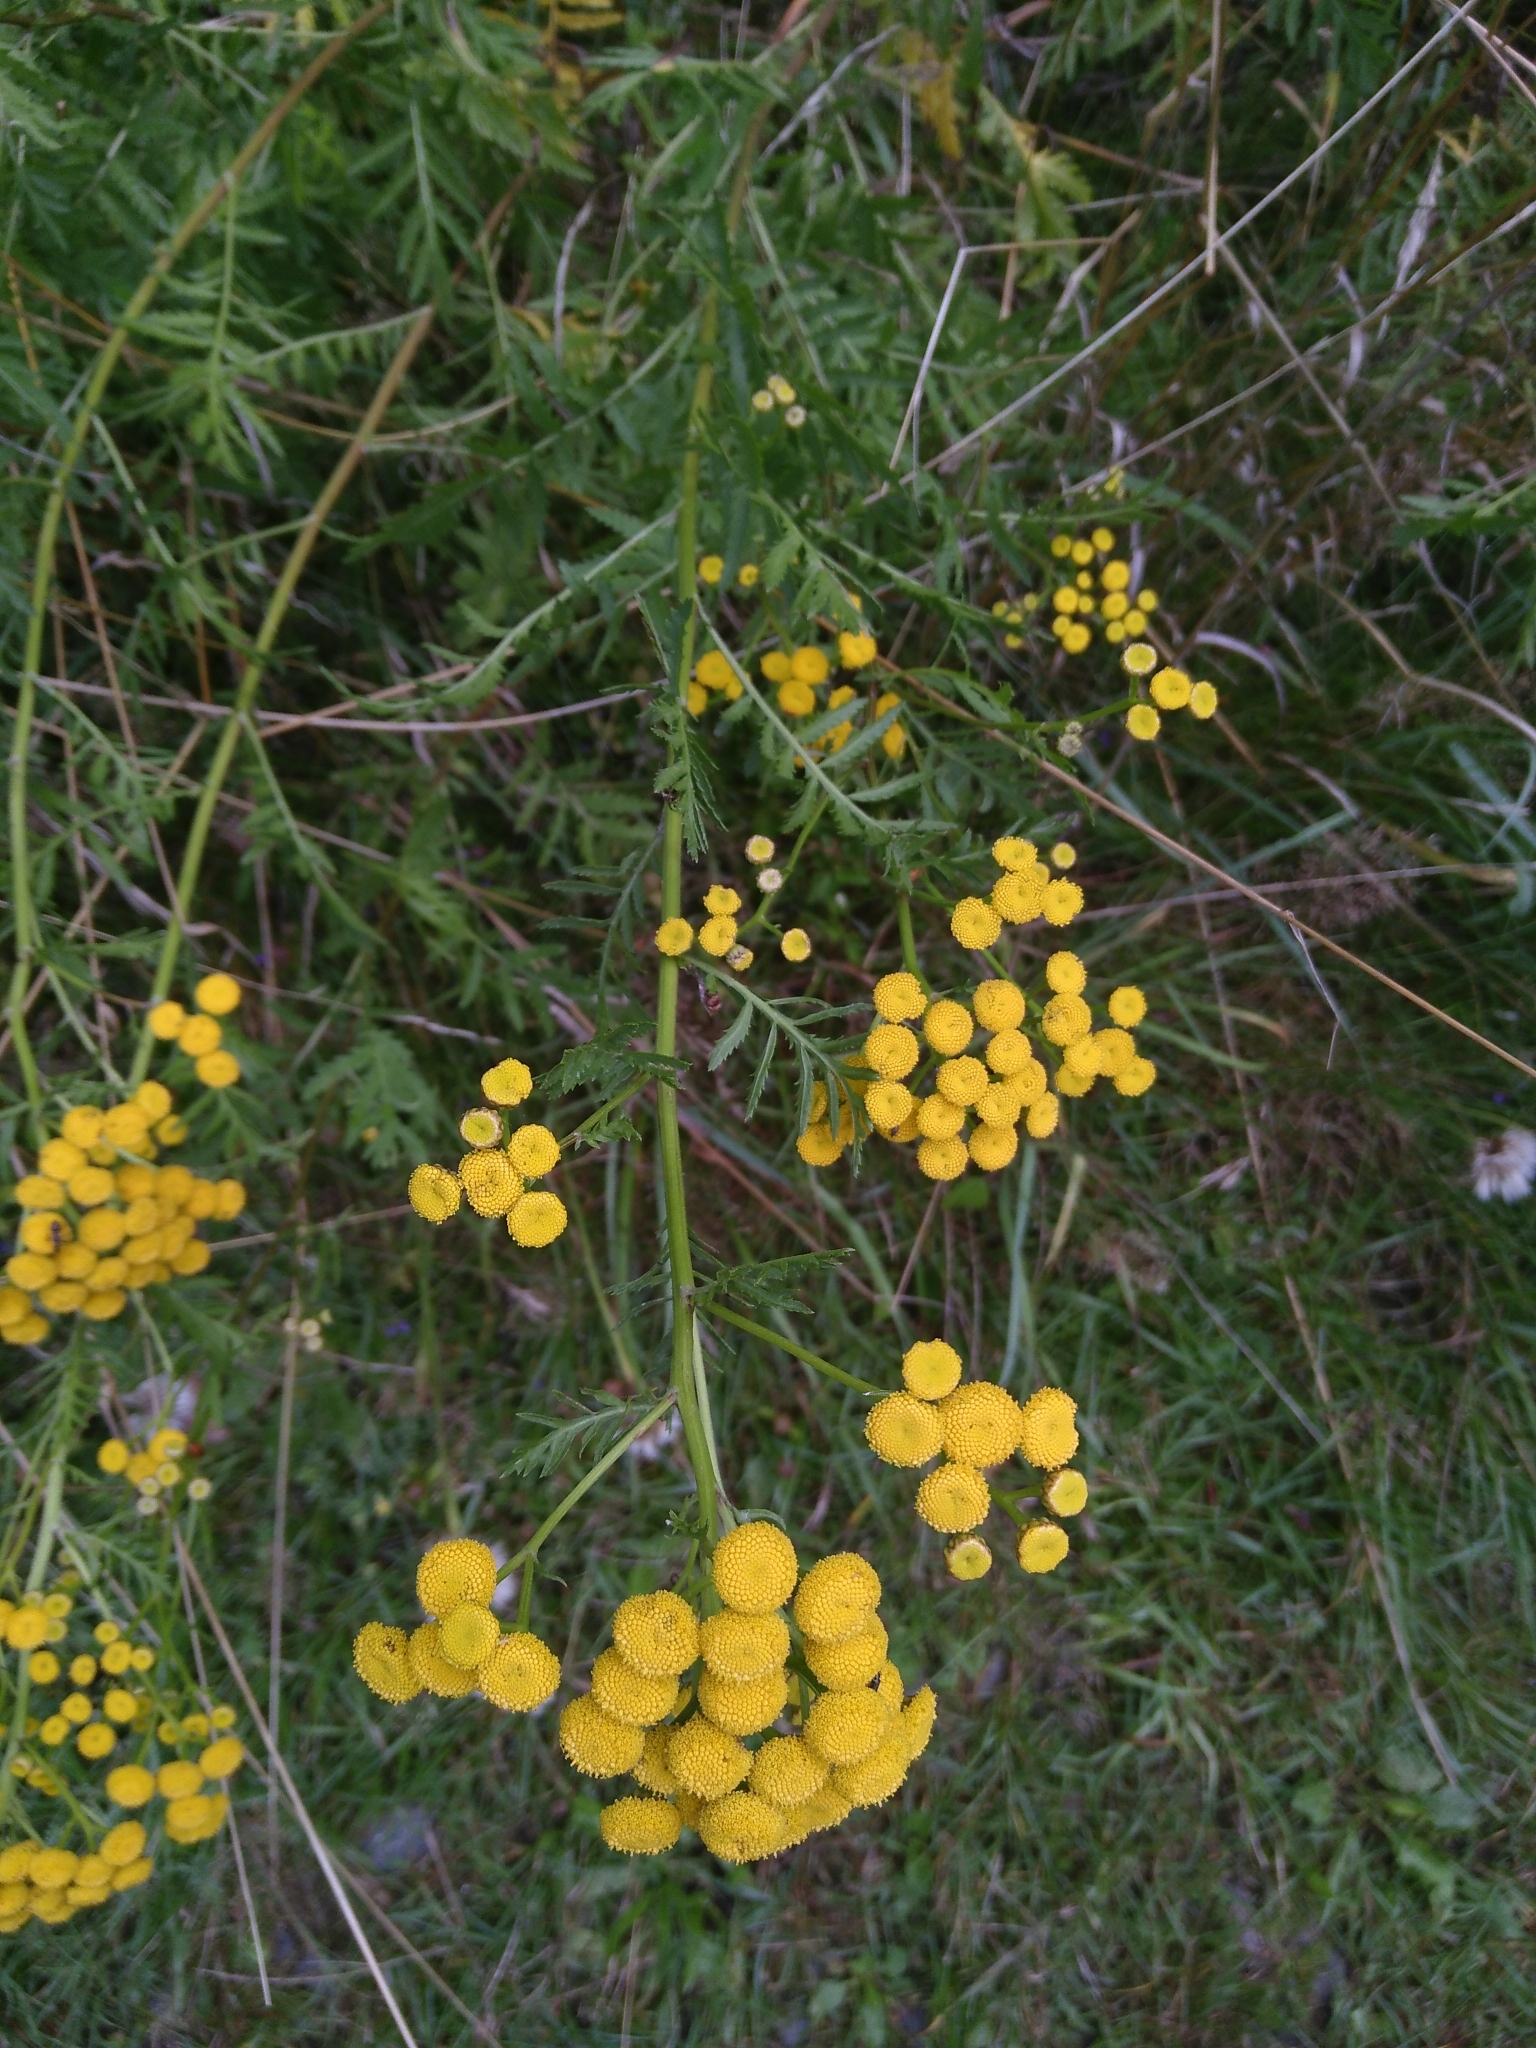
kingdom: Plantae
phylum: Tracheophyta
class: Magnoliopsida
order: Asterales
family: Asteraceae
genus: Tanacetum
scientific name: Tanacetum vulgare
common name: Common tansy
